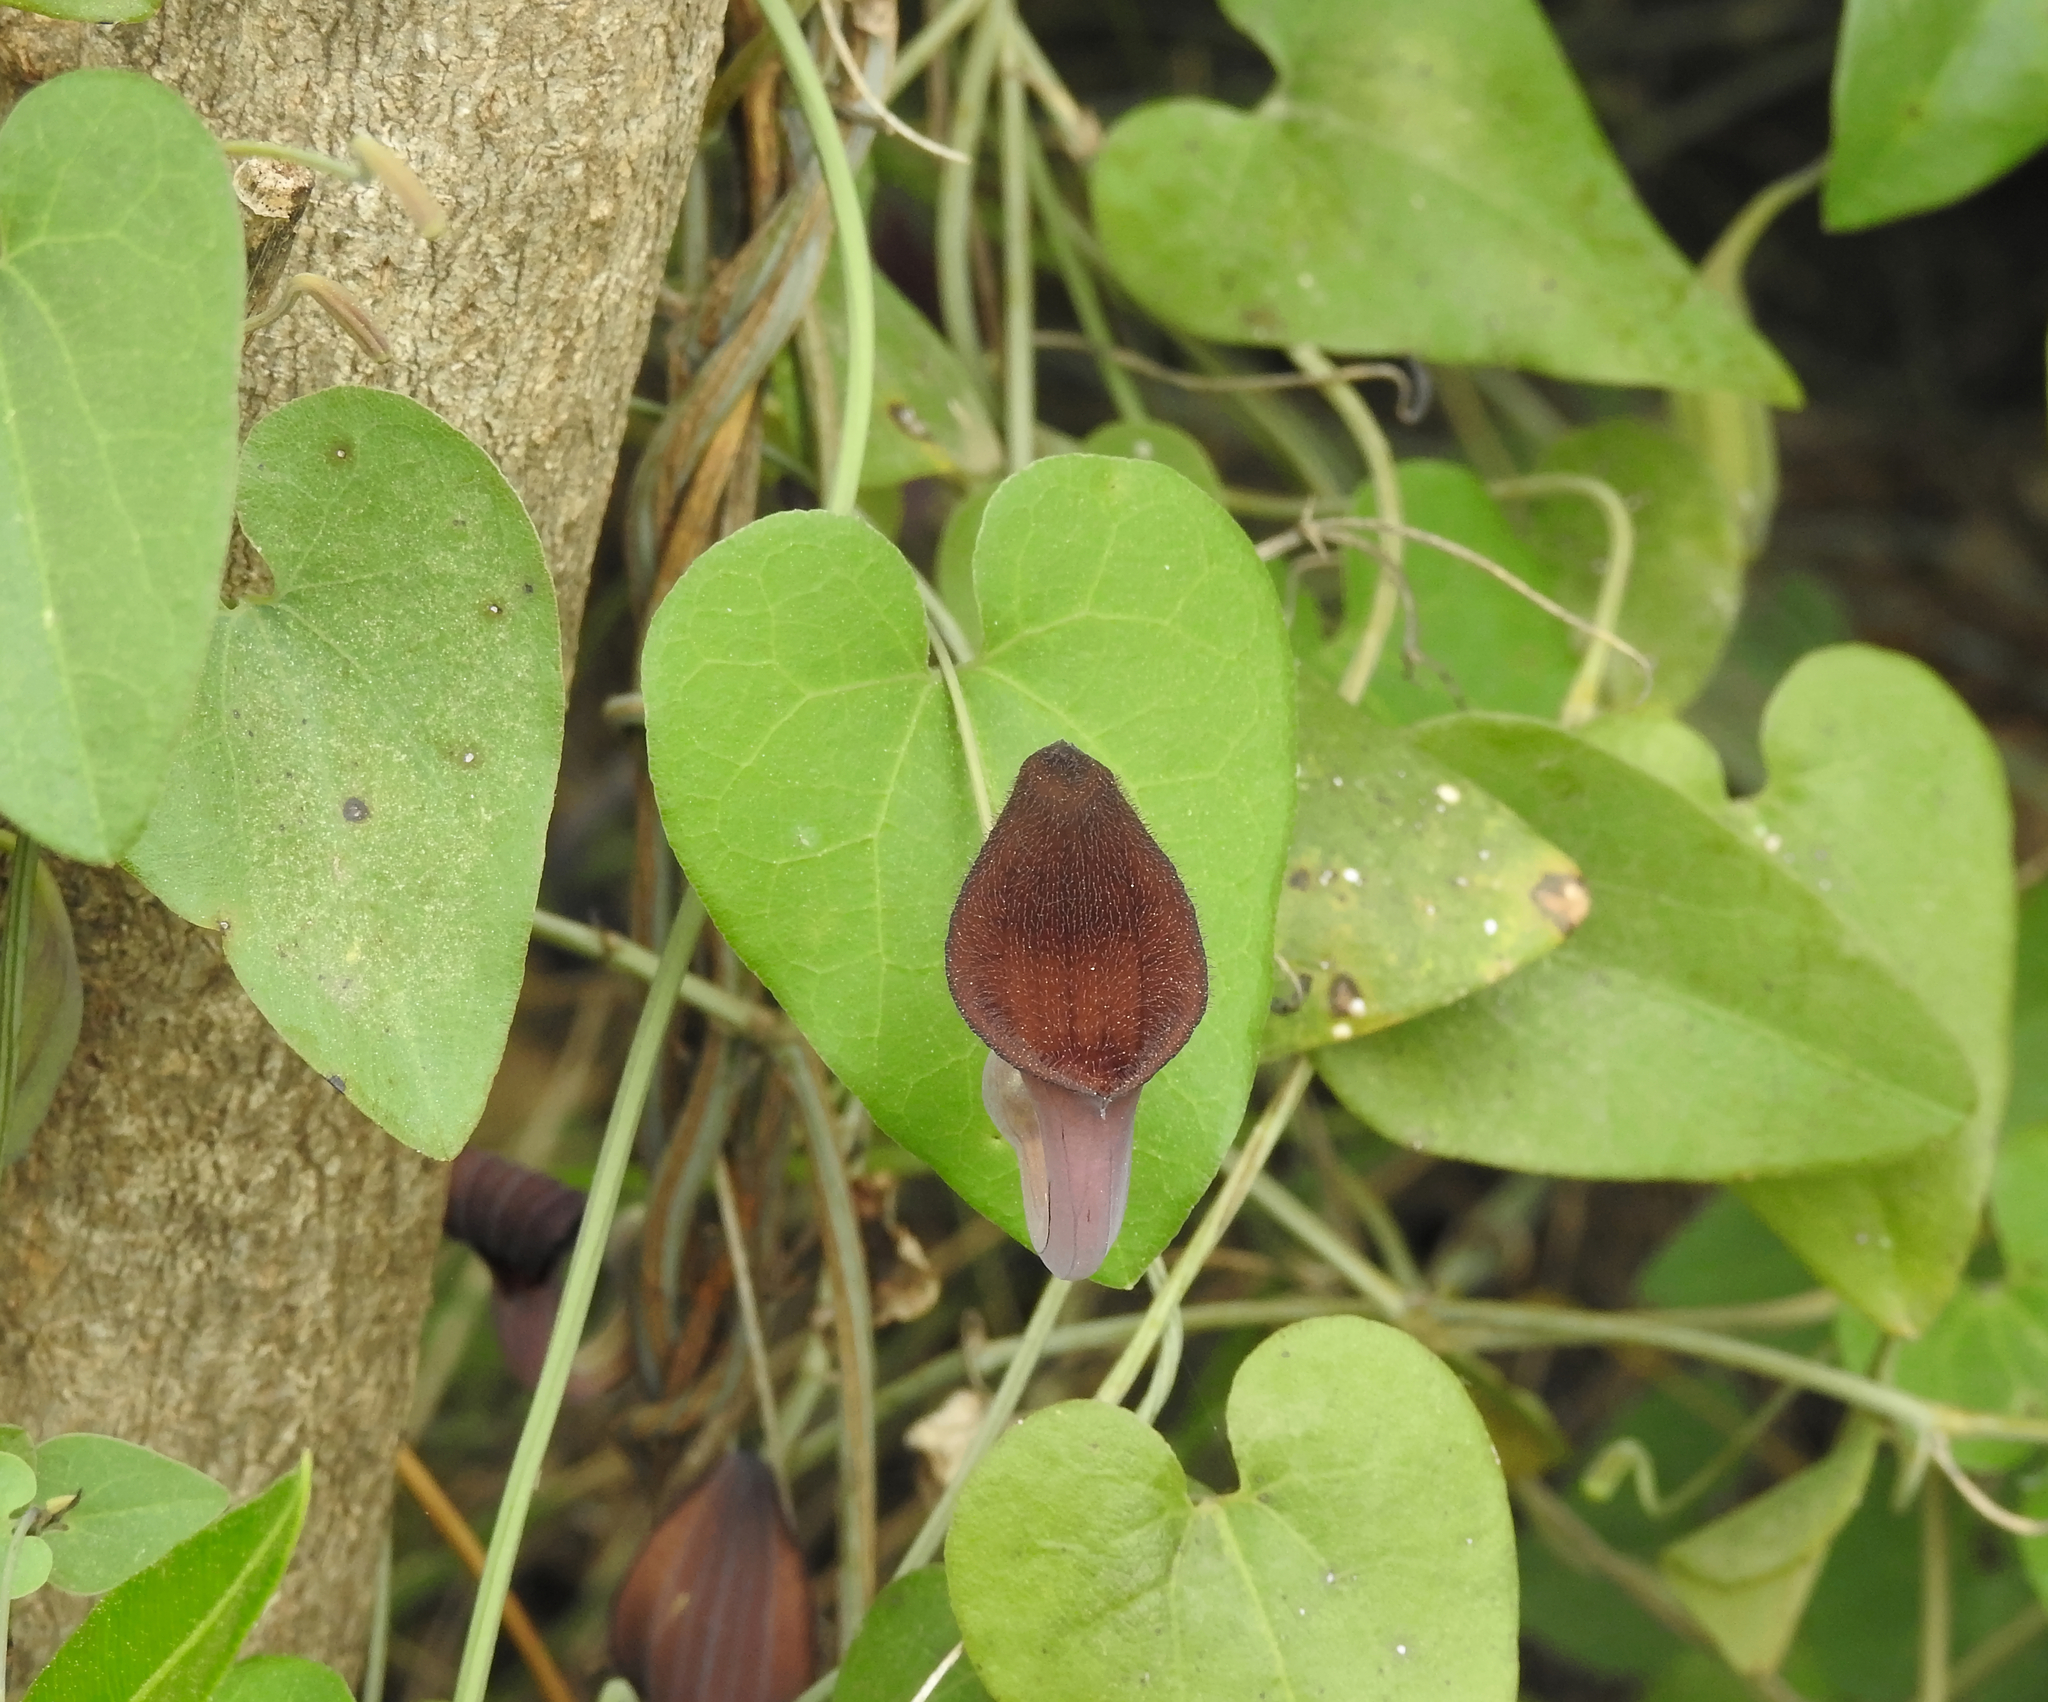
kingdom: Plantae
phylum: Tracheophyta
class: Magnoliopsida
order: Piperales
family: Aristolochiaceae
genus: Aristolochia
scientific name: Aristolochia baetica
